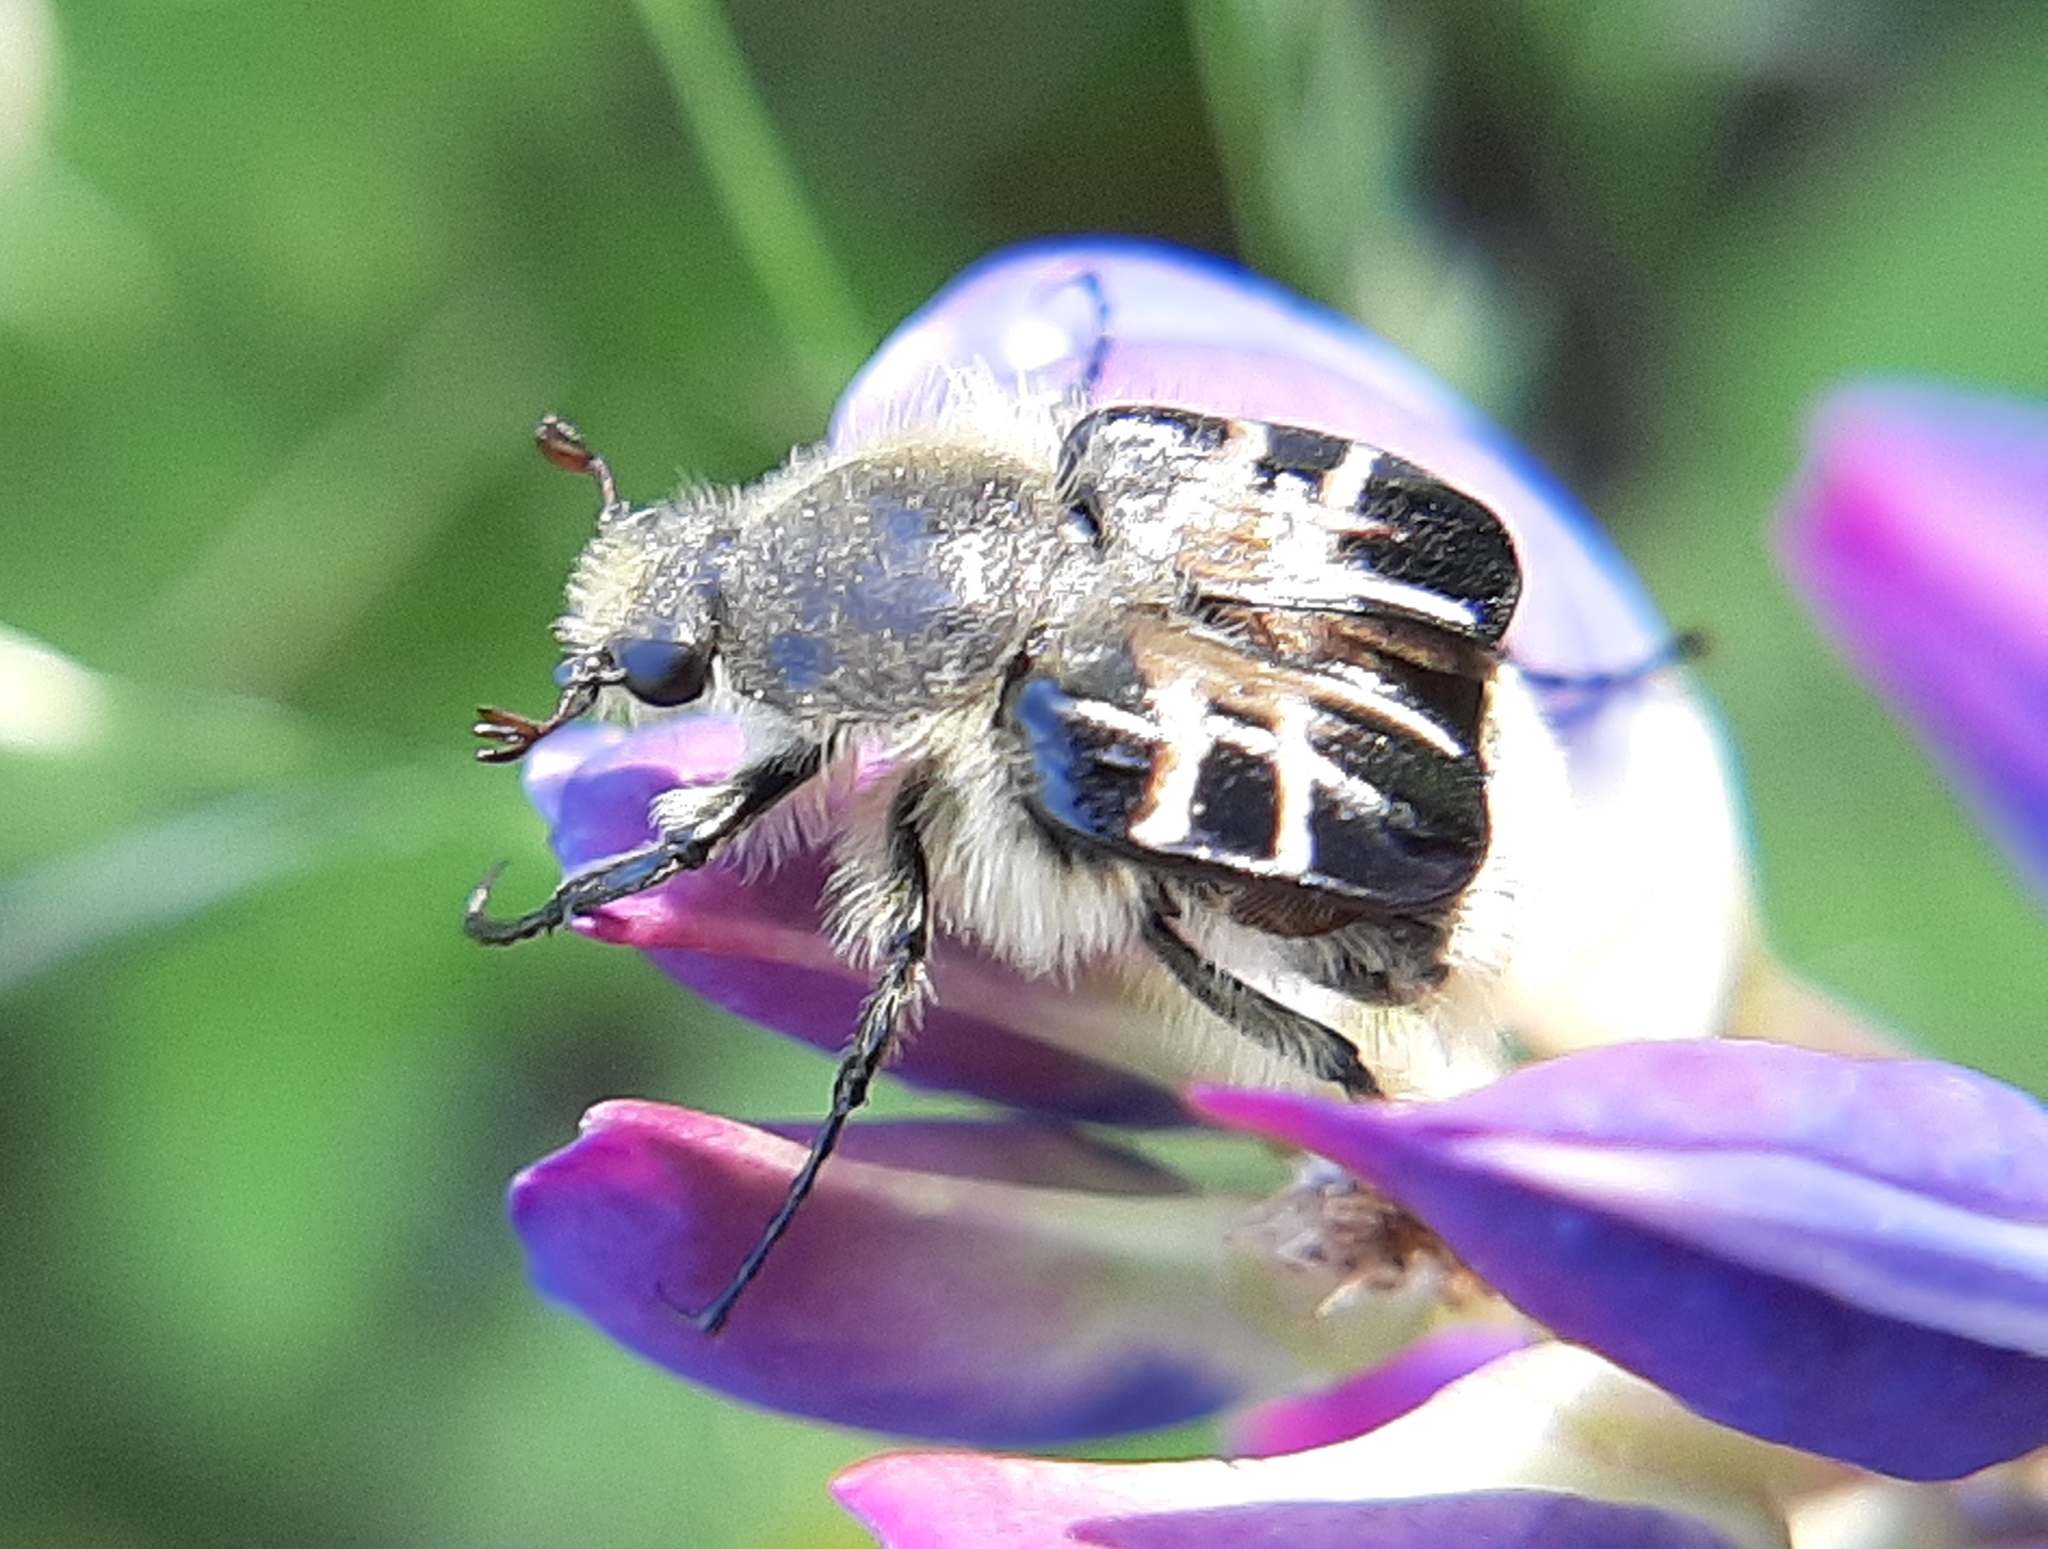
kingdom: Animalia
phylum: Arthropoda
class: Insecta
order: Coleoptera
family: Scarabaeidae
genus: Trichiotinus
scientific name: Trichiotinus assimilis
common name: Bee-mimic beetle
